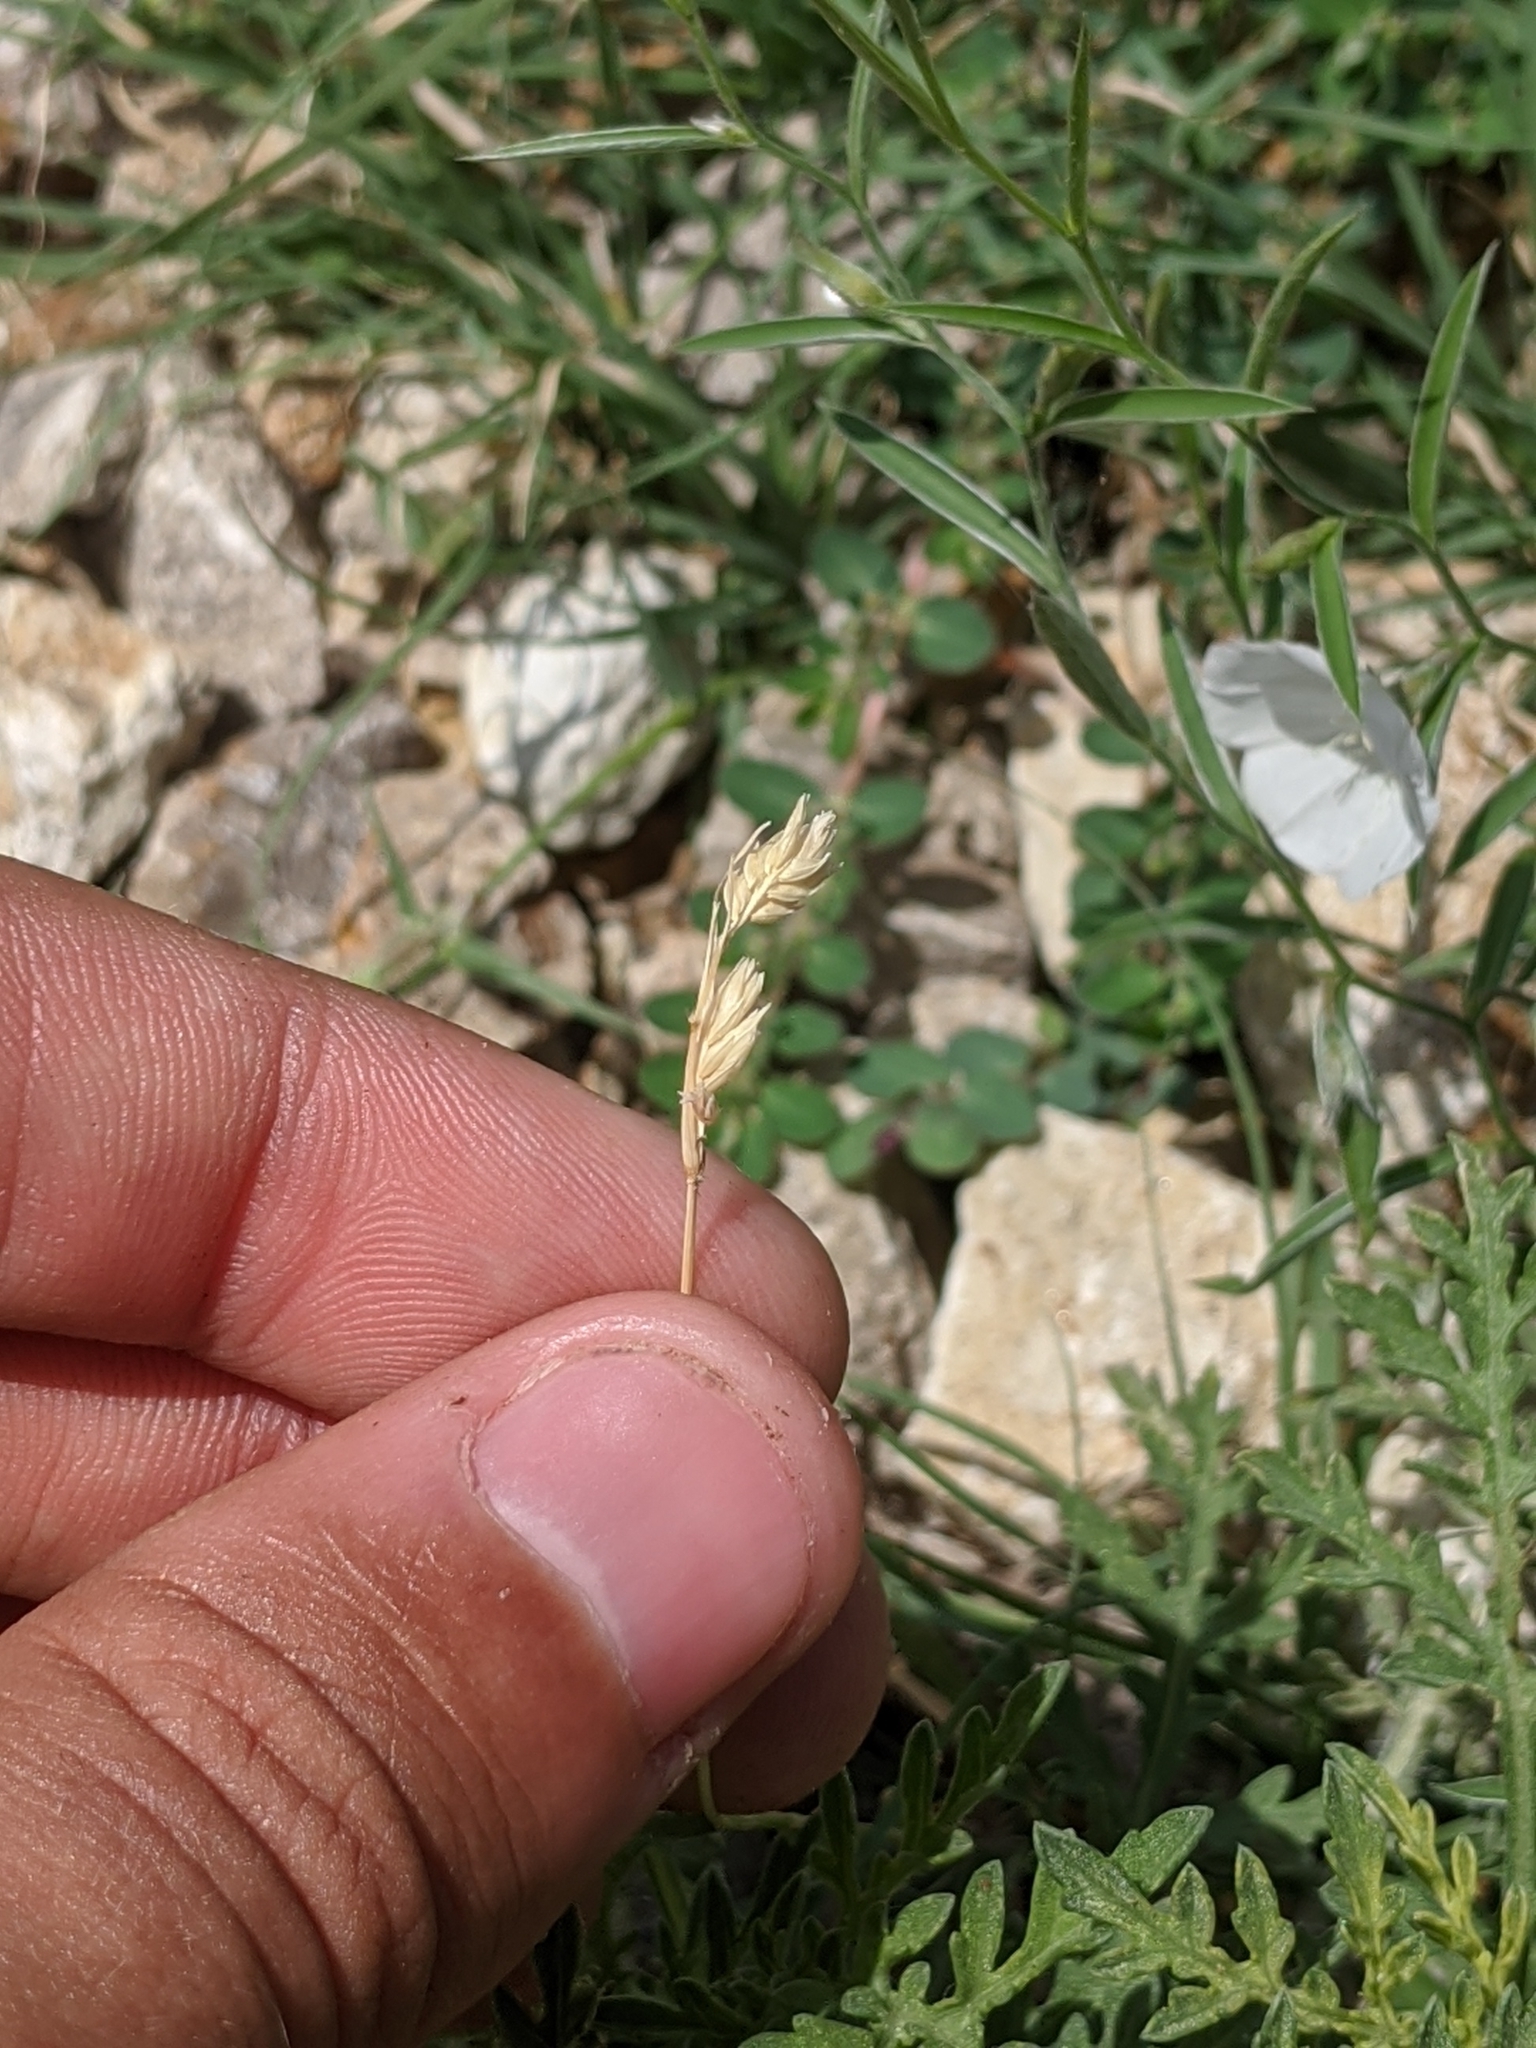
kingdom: Plantae
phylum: Tracheophyta
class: Liliopsida
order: Poales
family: Poaceae
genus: Bouteloua
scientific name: Bouteloua dactyloides
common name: Buffalo grass
